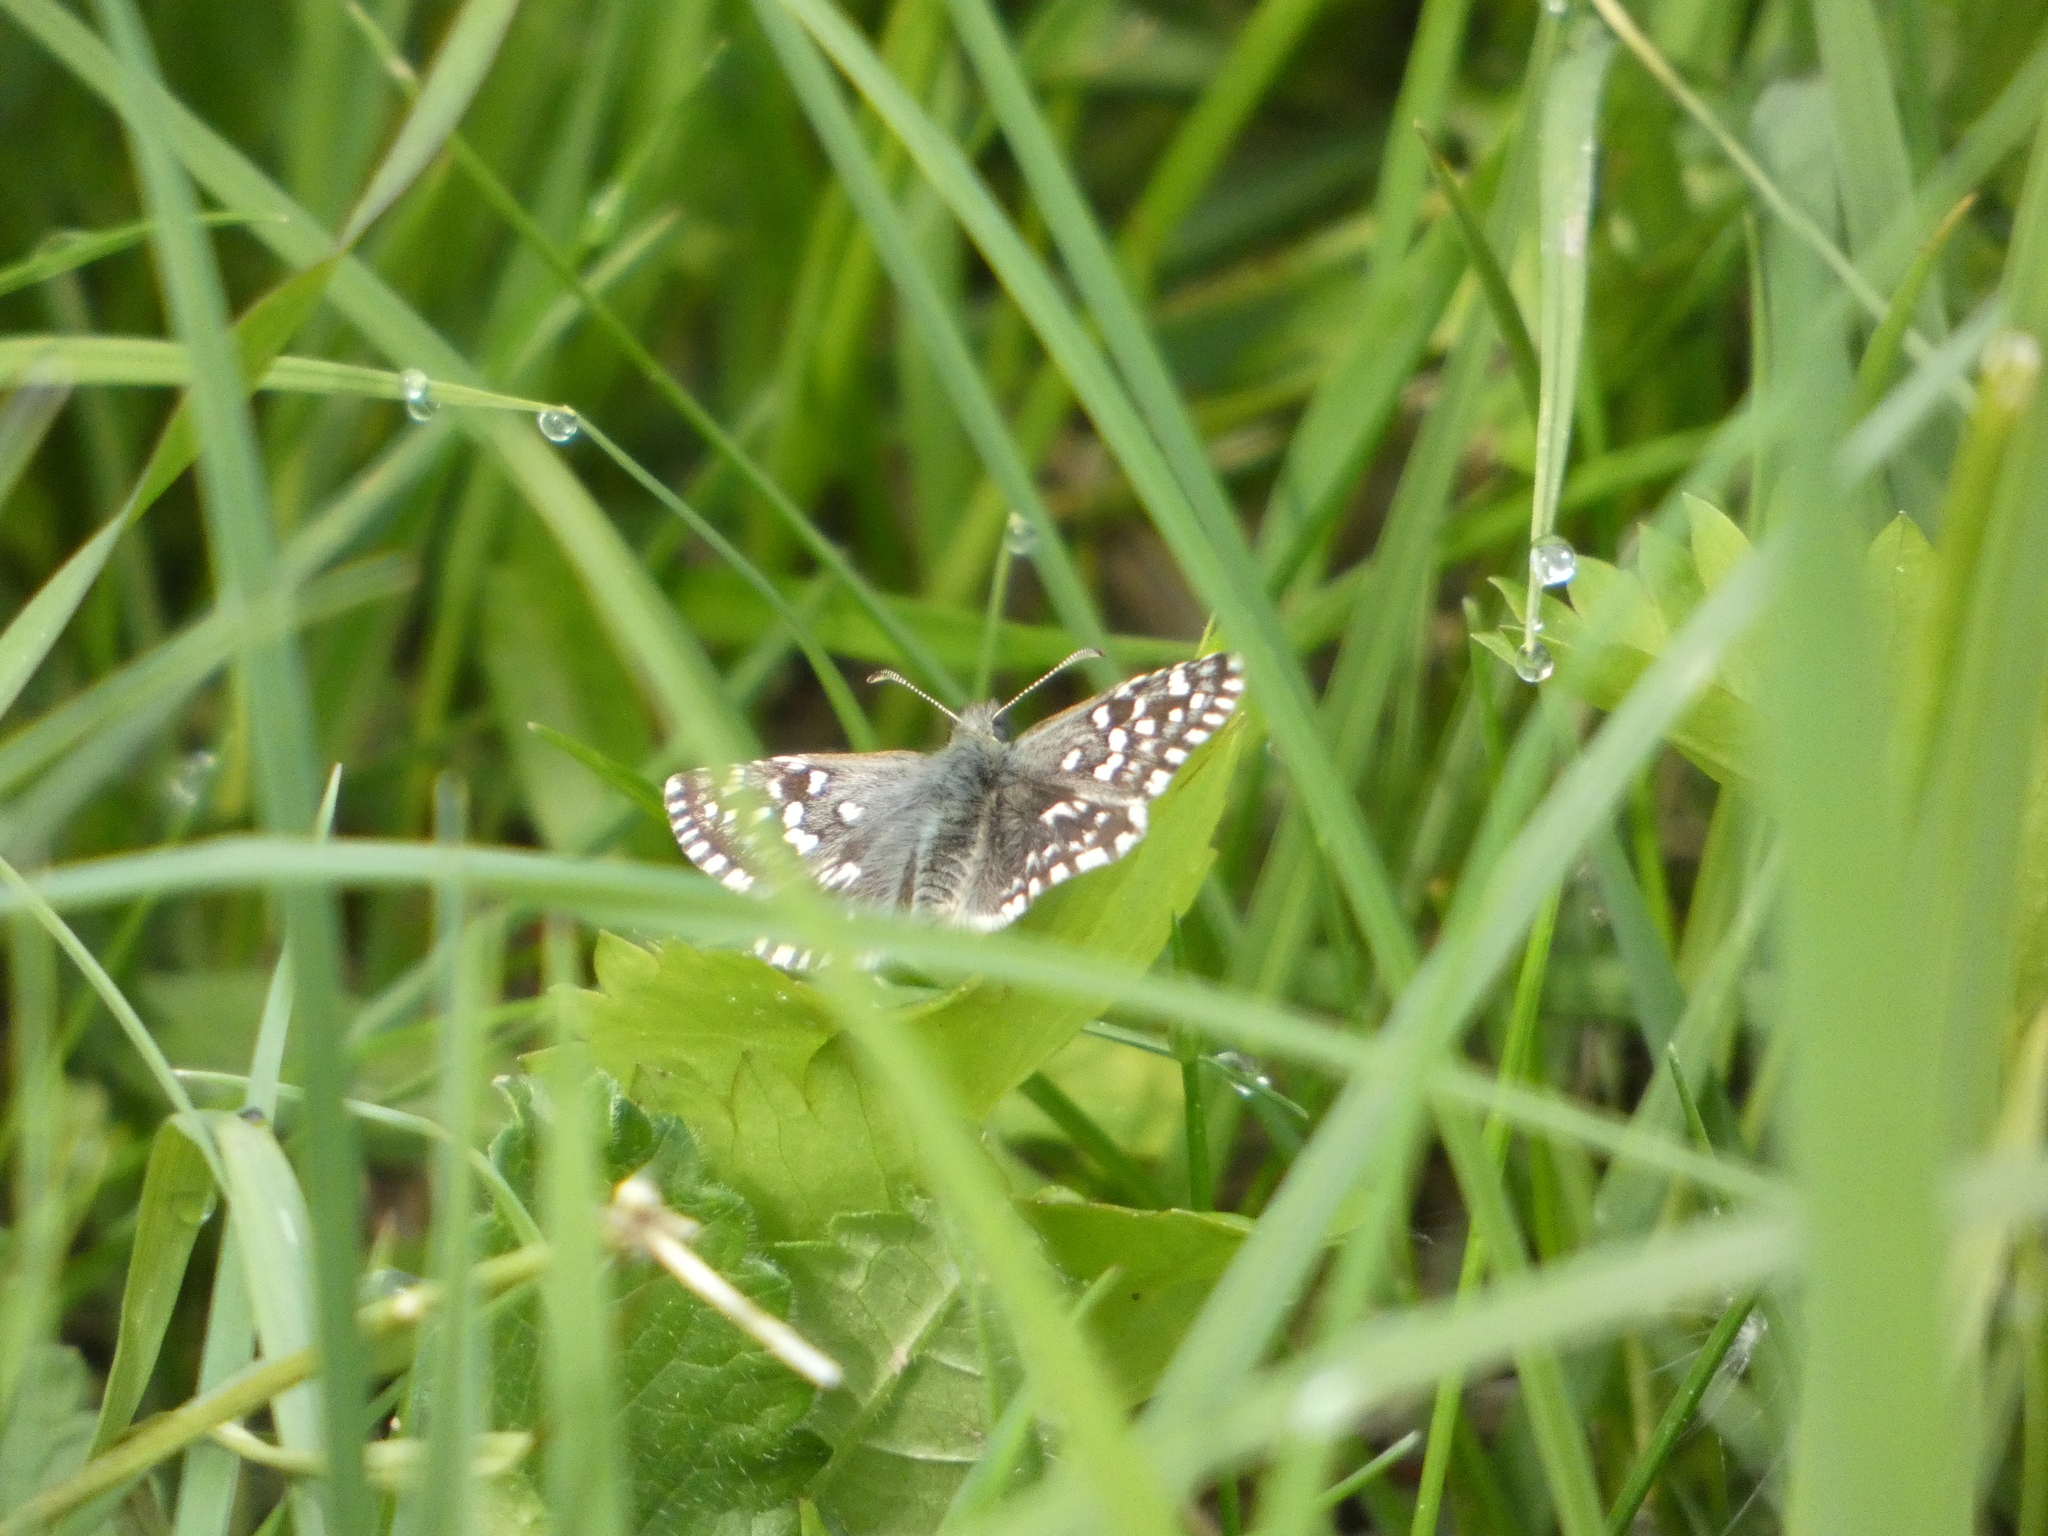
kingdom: Animalia
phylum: Arthropoda
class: Insecta
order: Lepidoptera
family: Hesperiidae
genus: Pyrgus
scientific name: Pyrgus malvae
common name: Grizzled skipper
